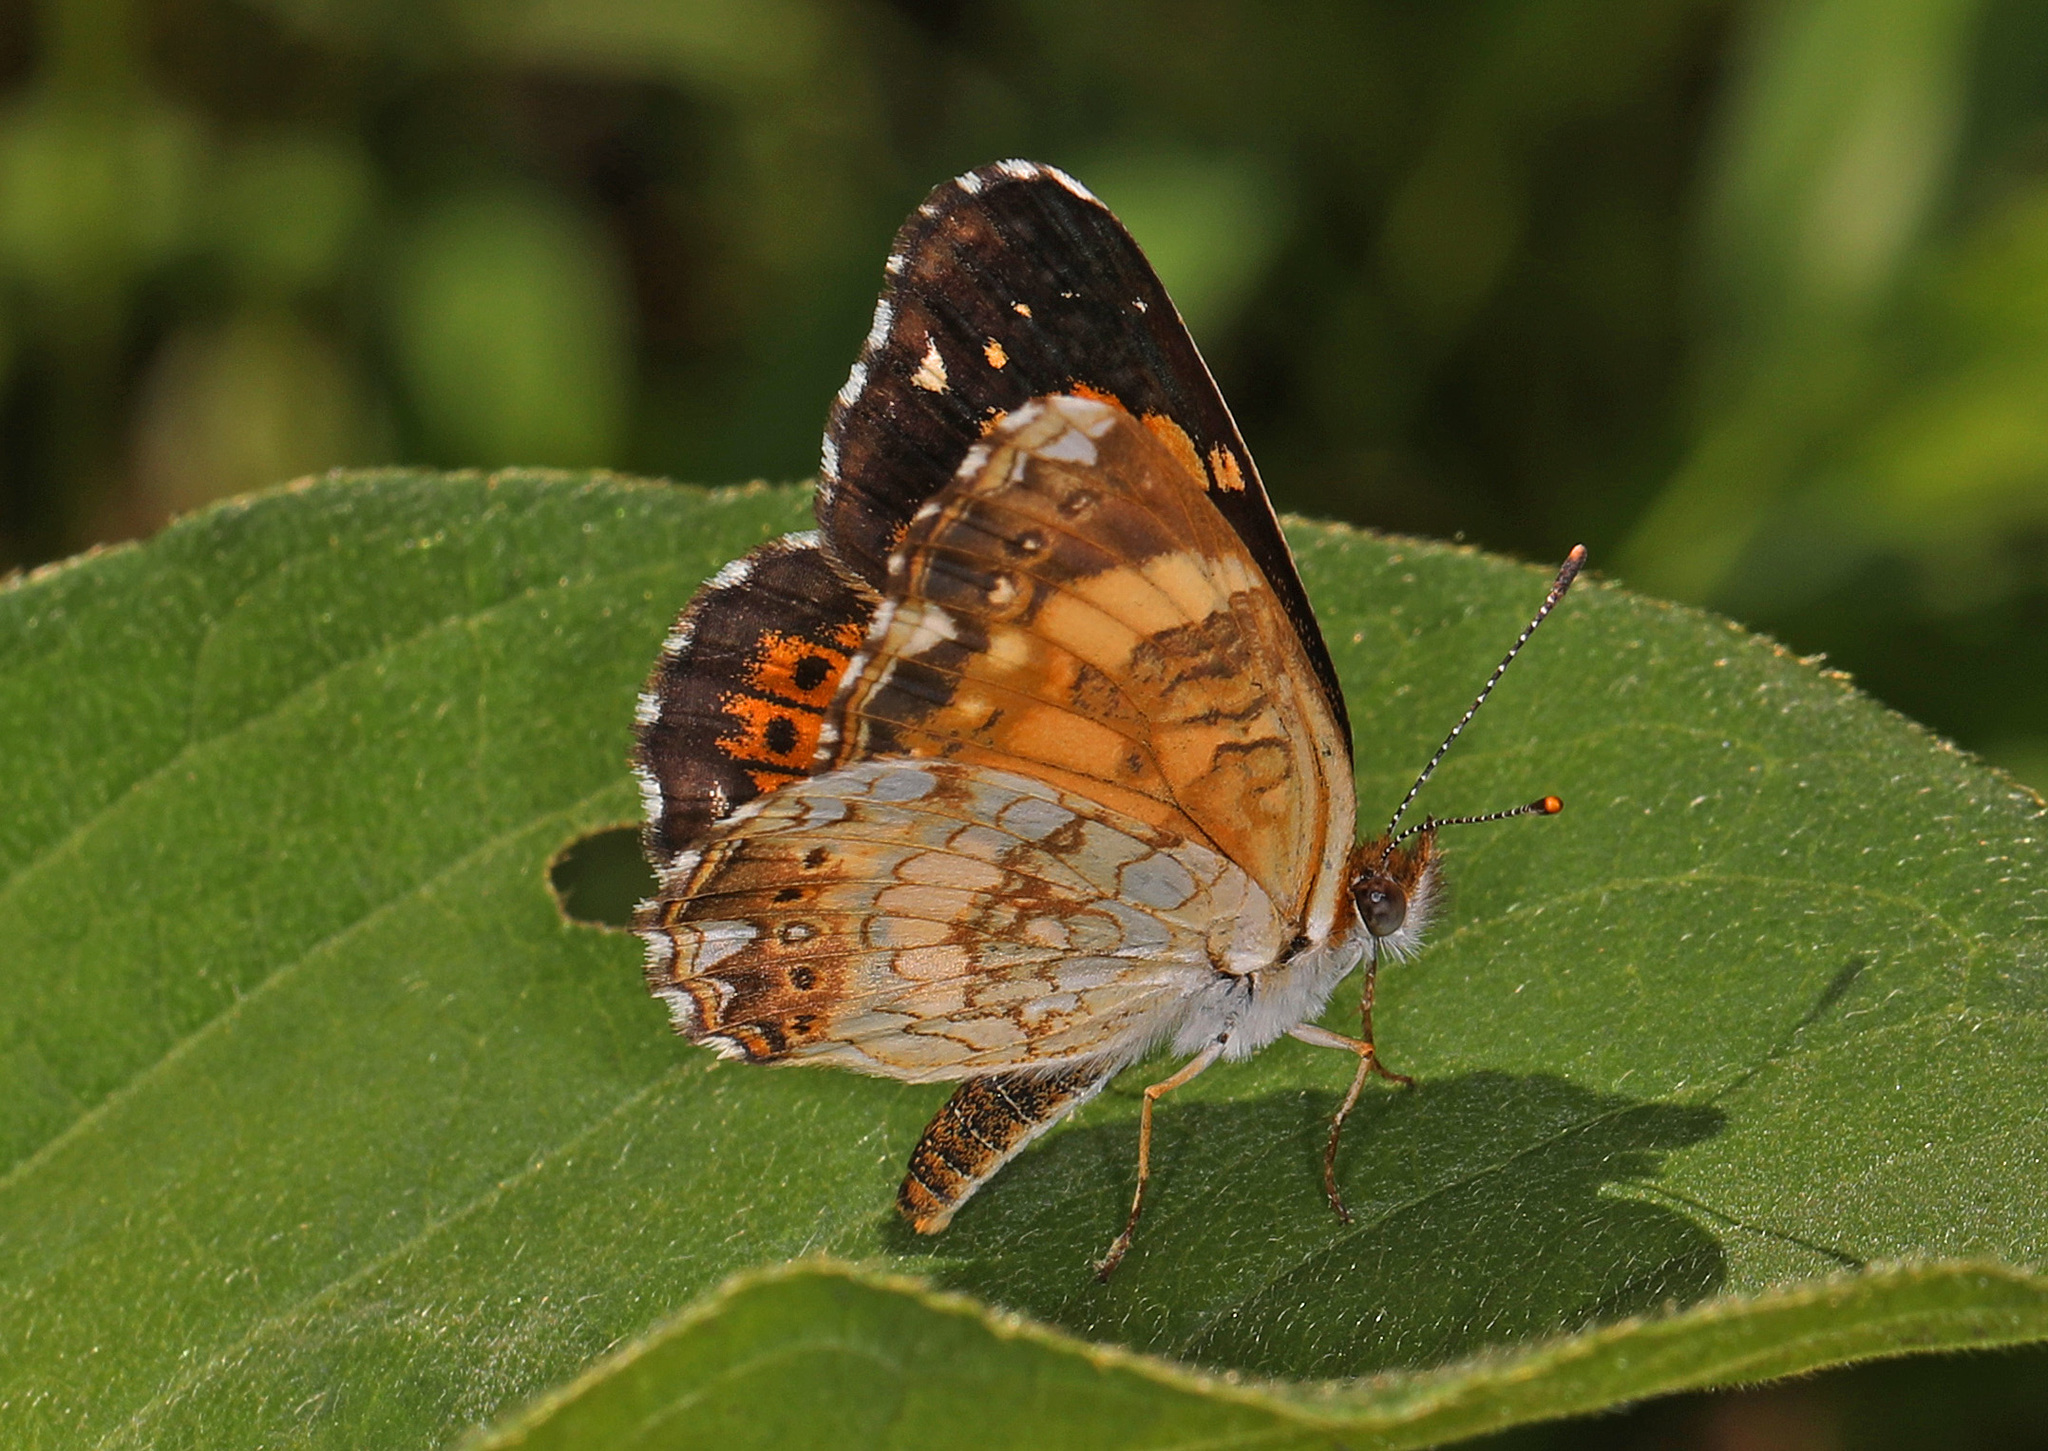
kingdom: Animalia
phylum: Arthropoda
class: Insecta
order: Lepidoptera
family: Nymphalidae
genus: Chlosyne
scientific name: Chlosyne nycteis
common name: Silvery checkerspot
